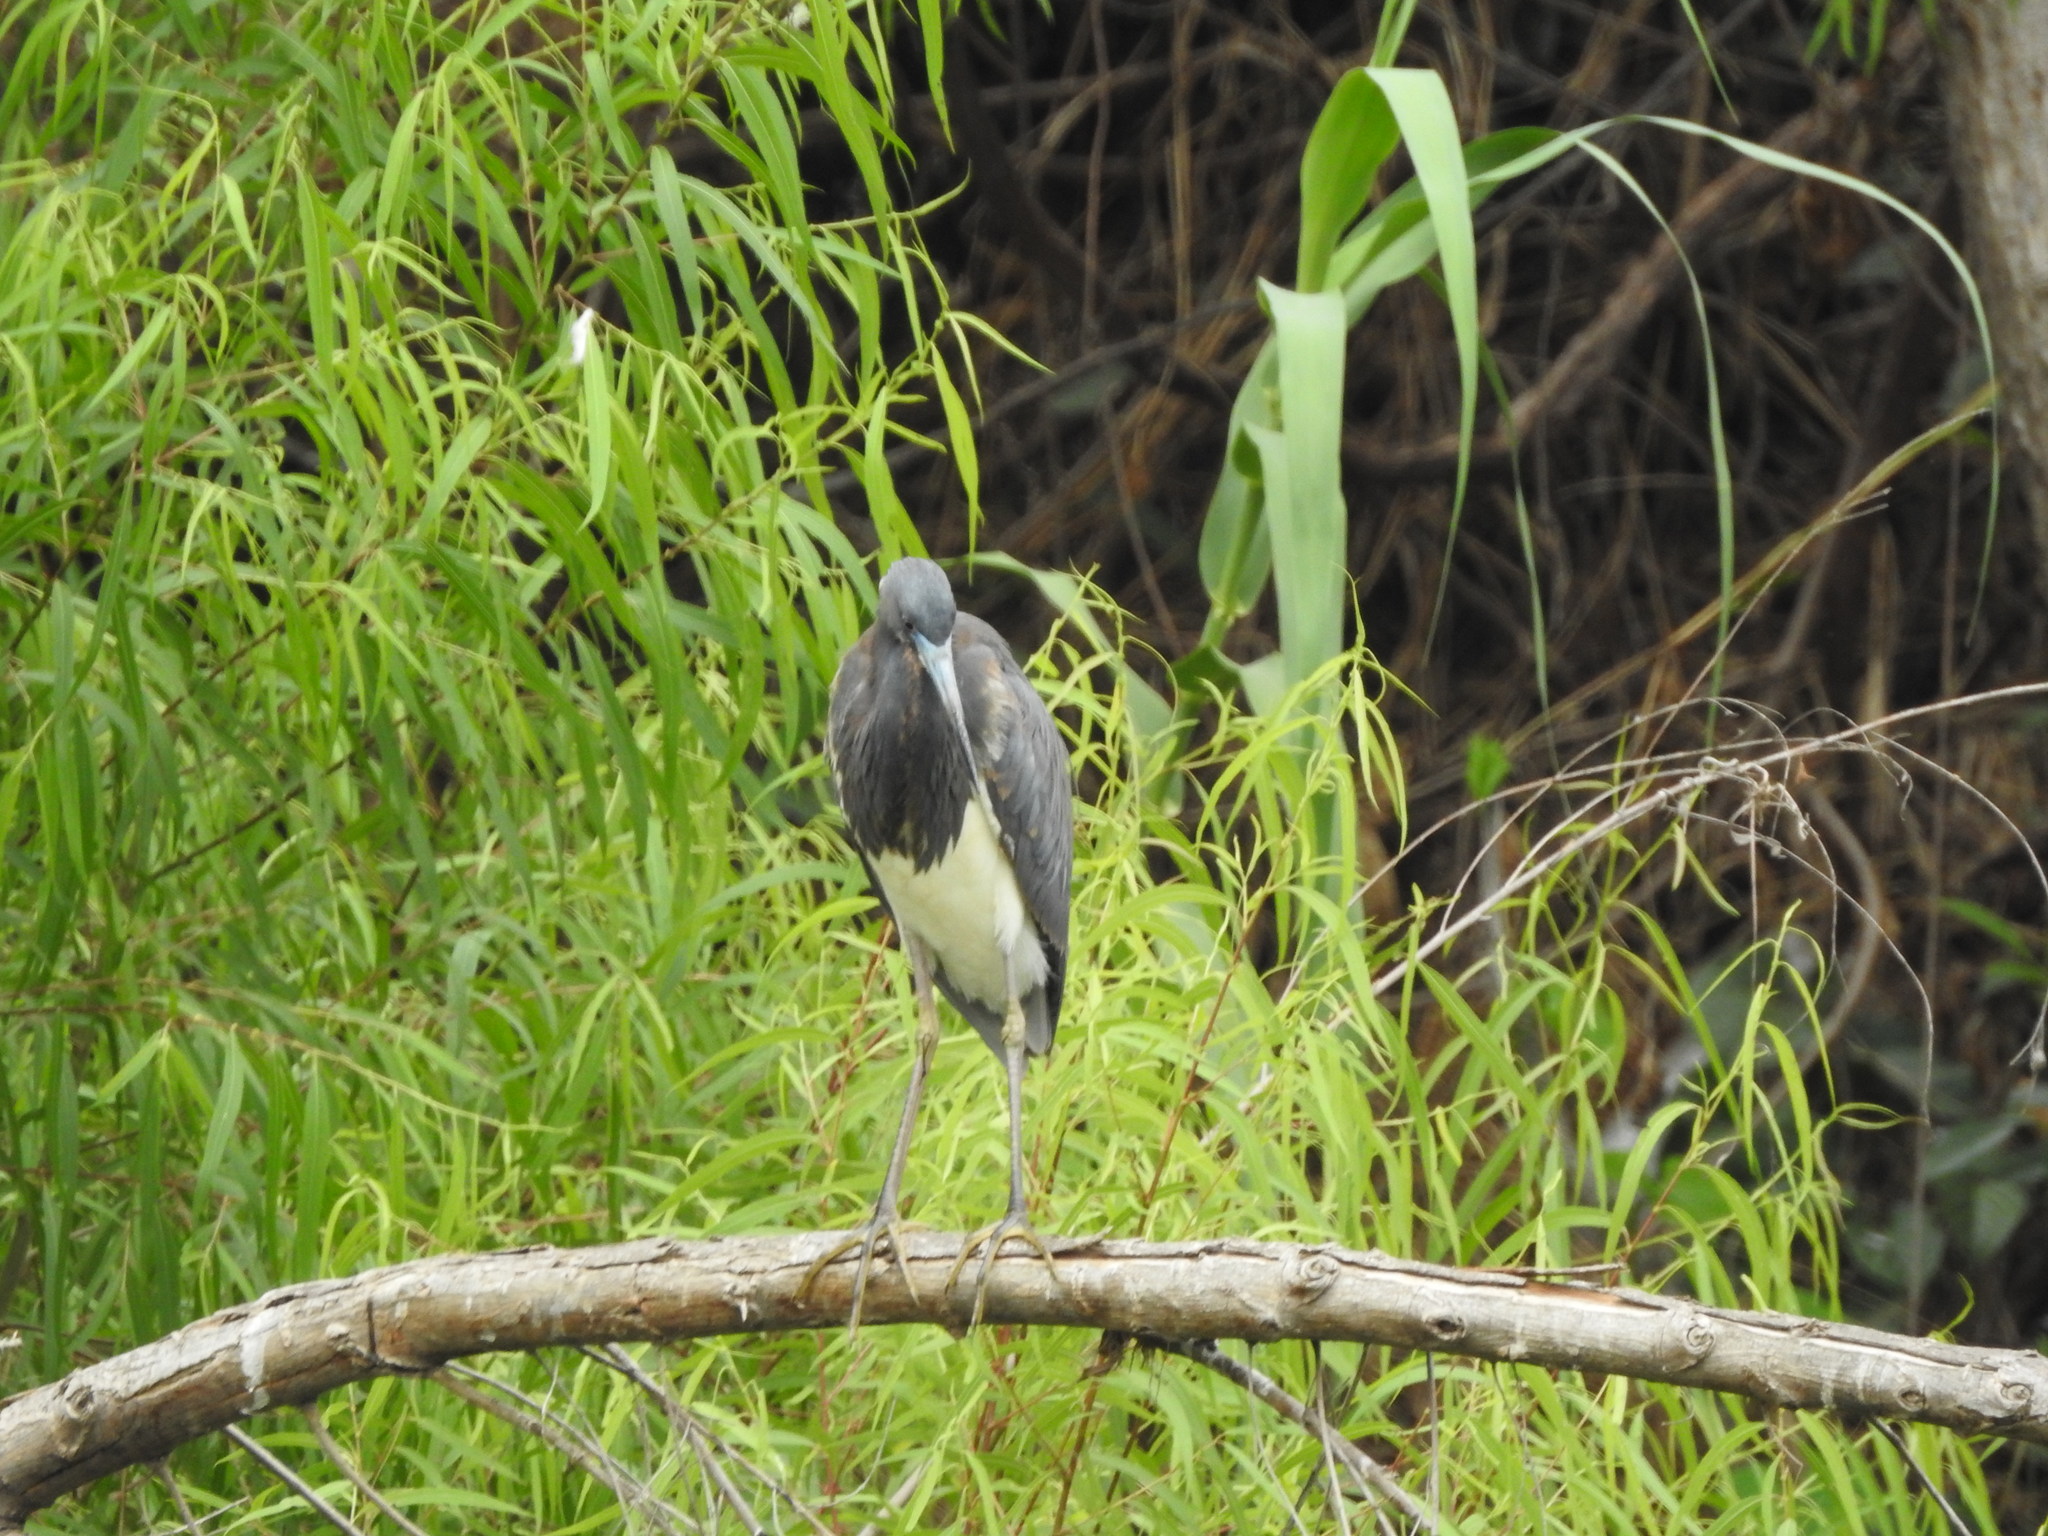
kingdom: Animalia
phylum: Chordata
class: Aves
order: Pelecaniformes
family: Ardeidae
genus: Egretta
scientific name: Egretta tricolor
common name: Tricolored heron
